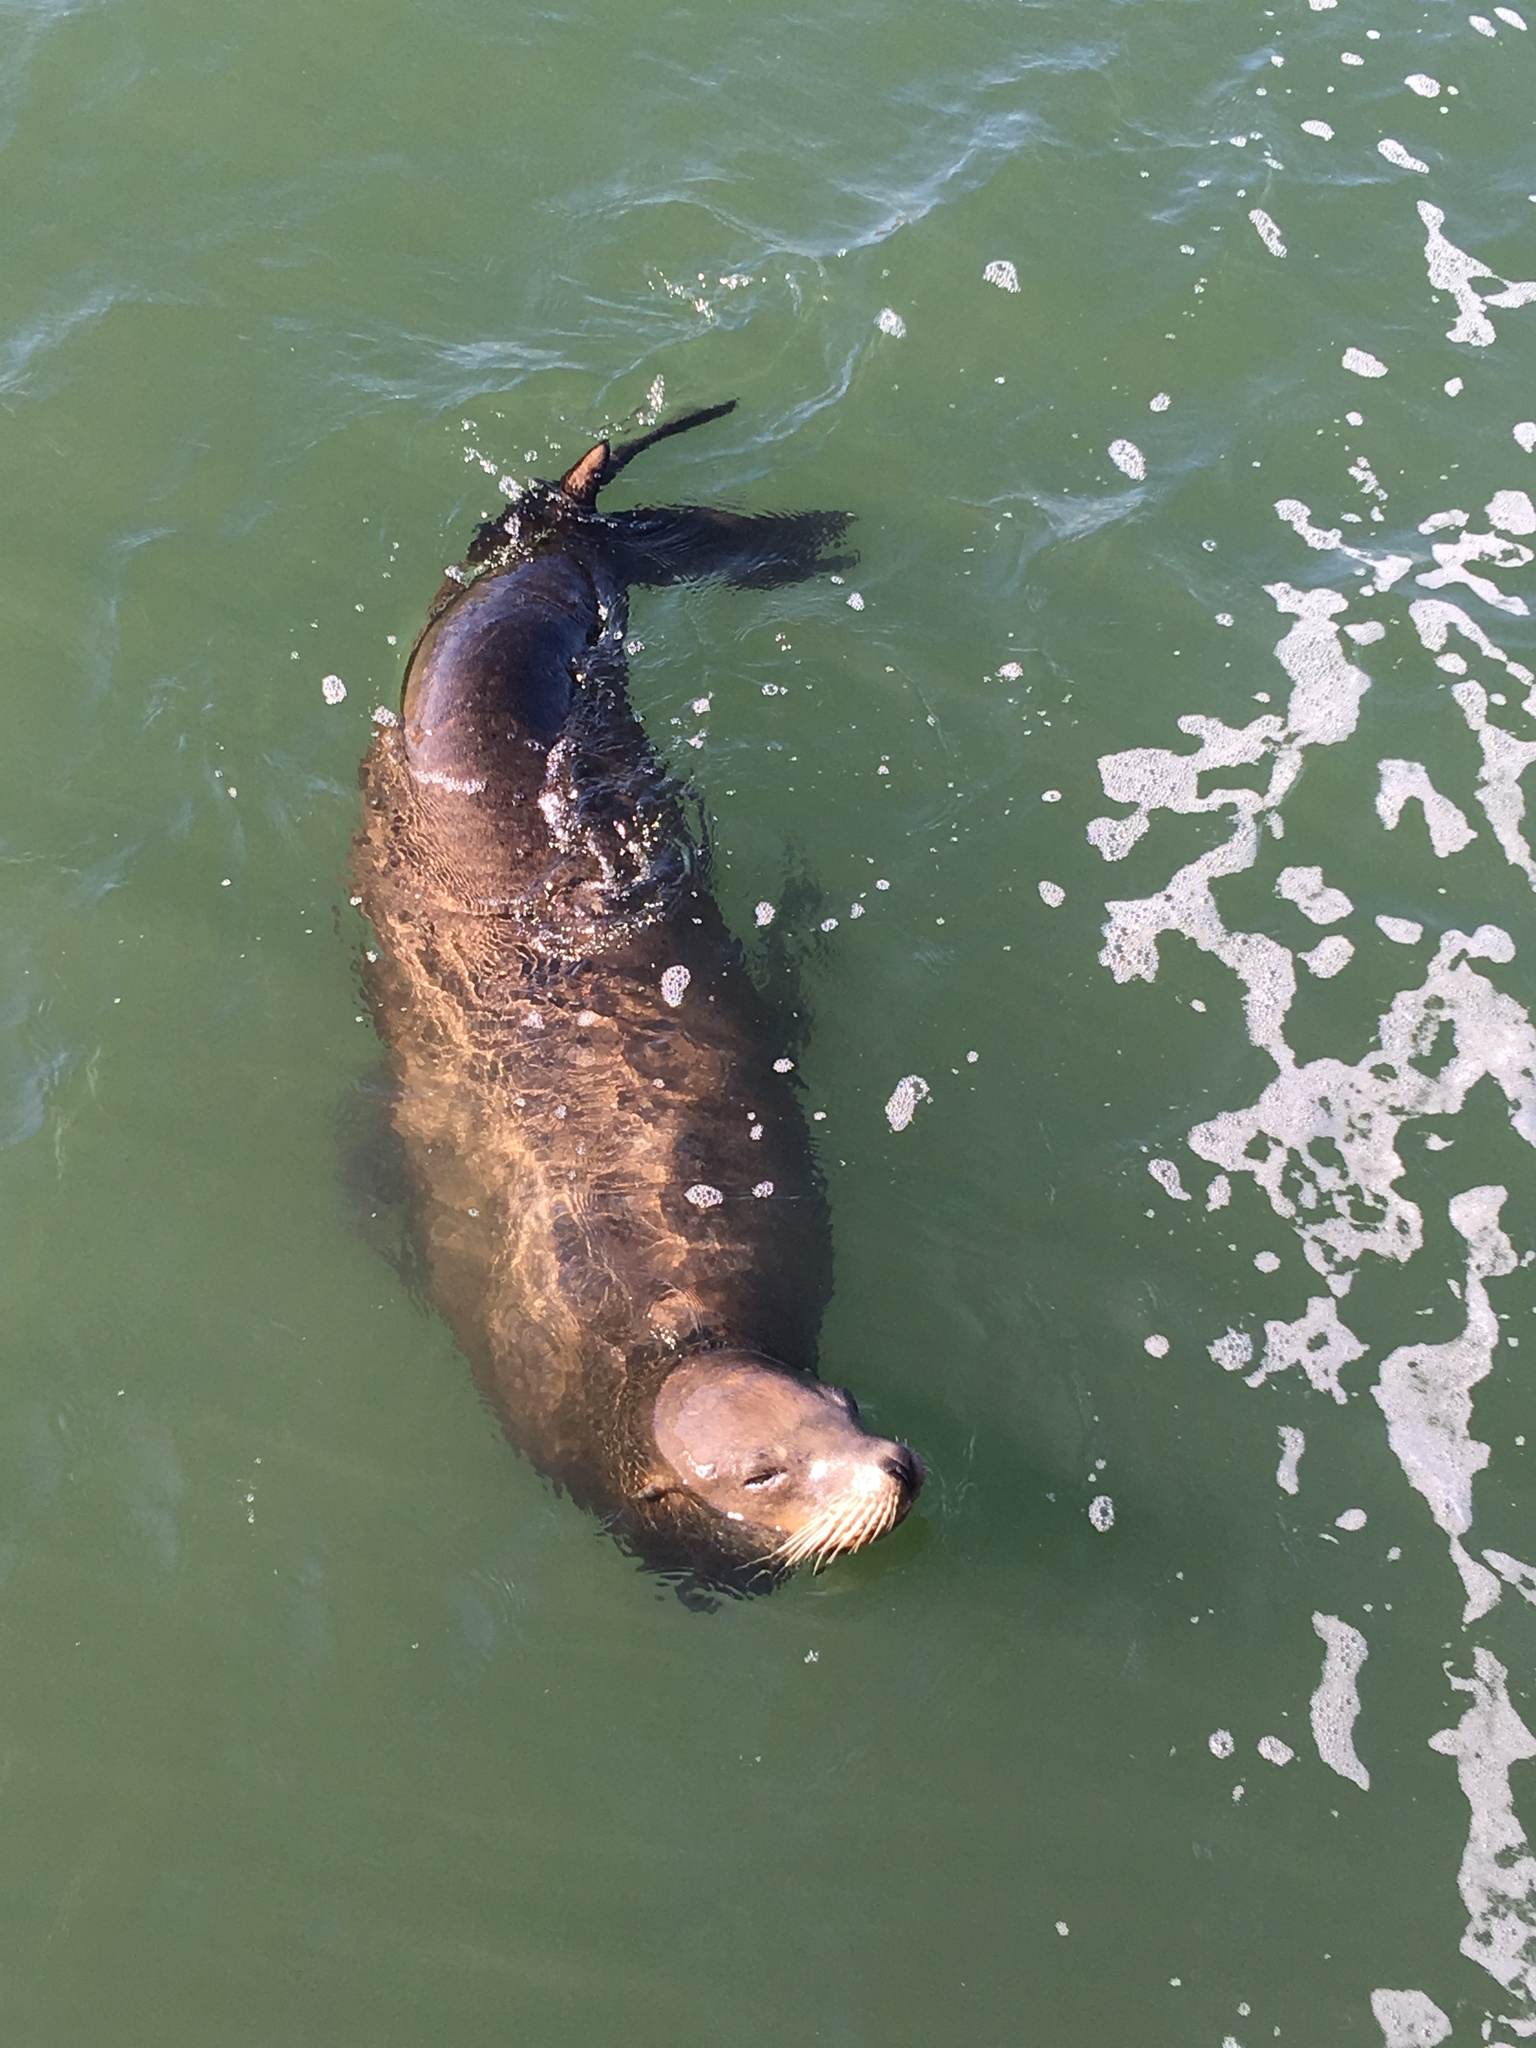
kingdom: Animalia
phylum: Chordata
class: Mammalia
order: Carnivora
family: Otariidae
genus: Zalophus
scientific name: Zalophus californianus
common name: California sea lion
